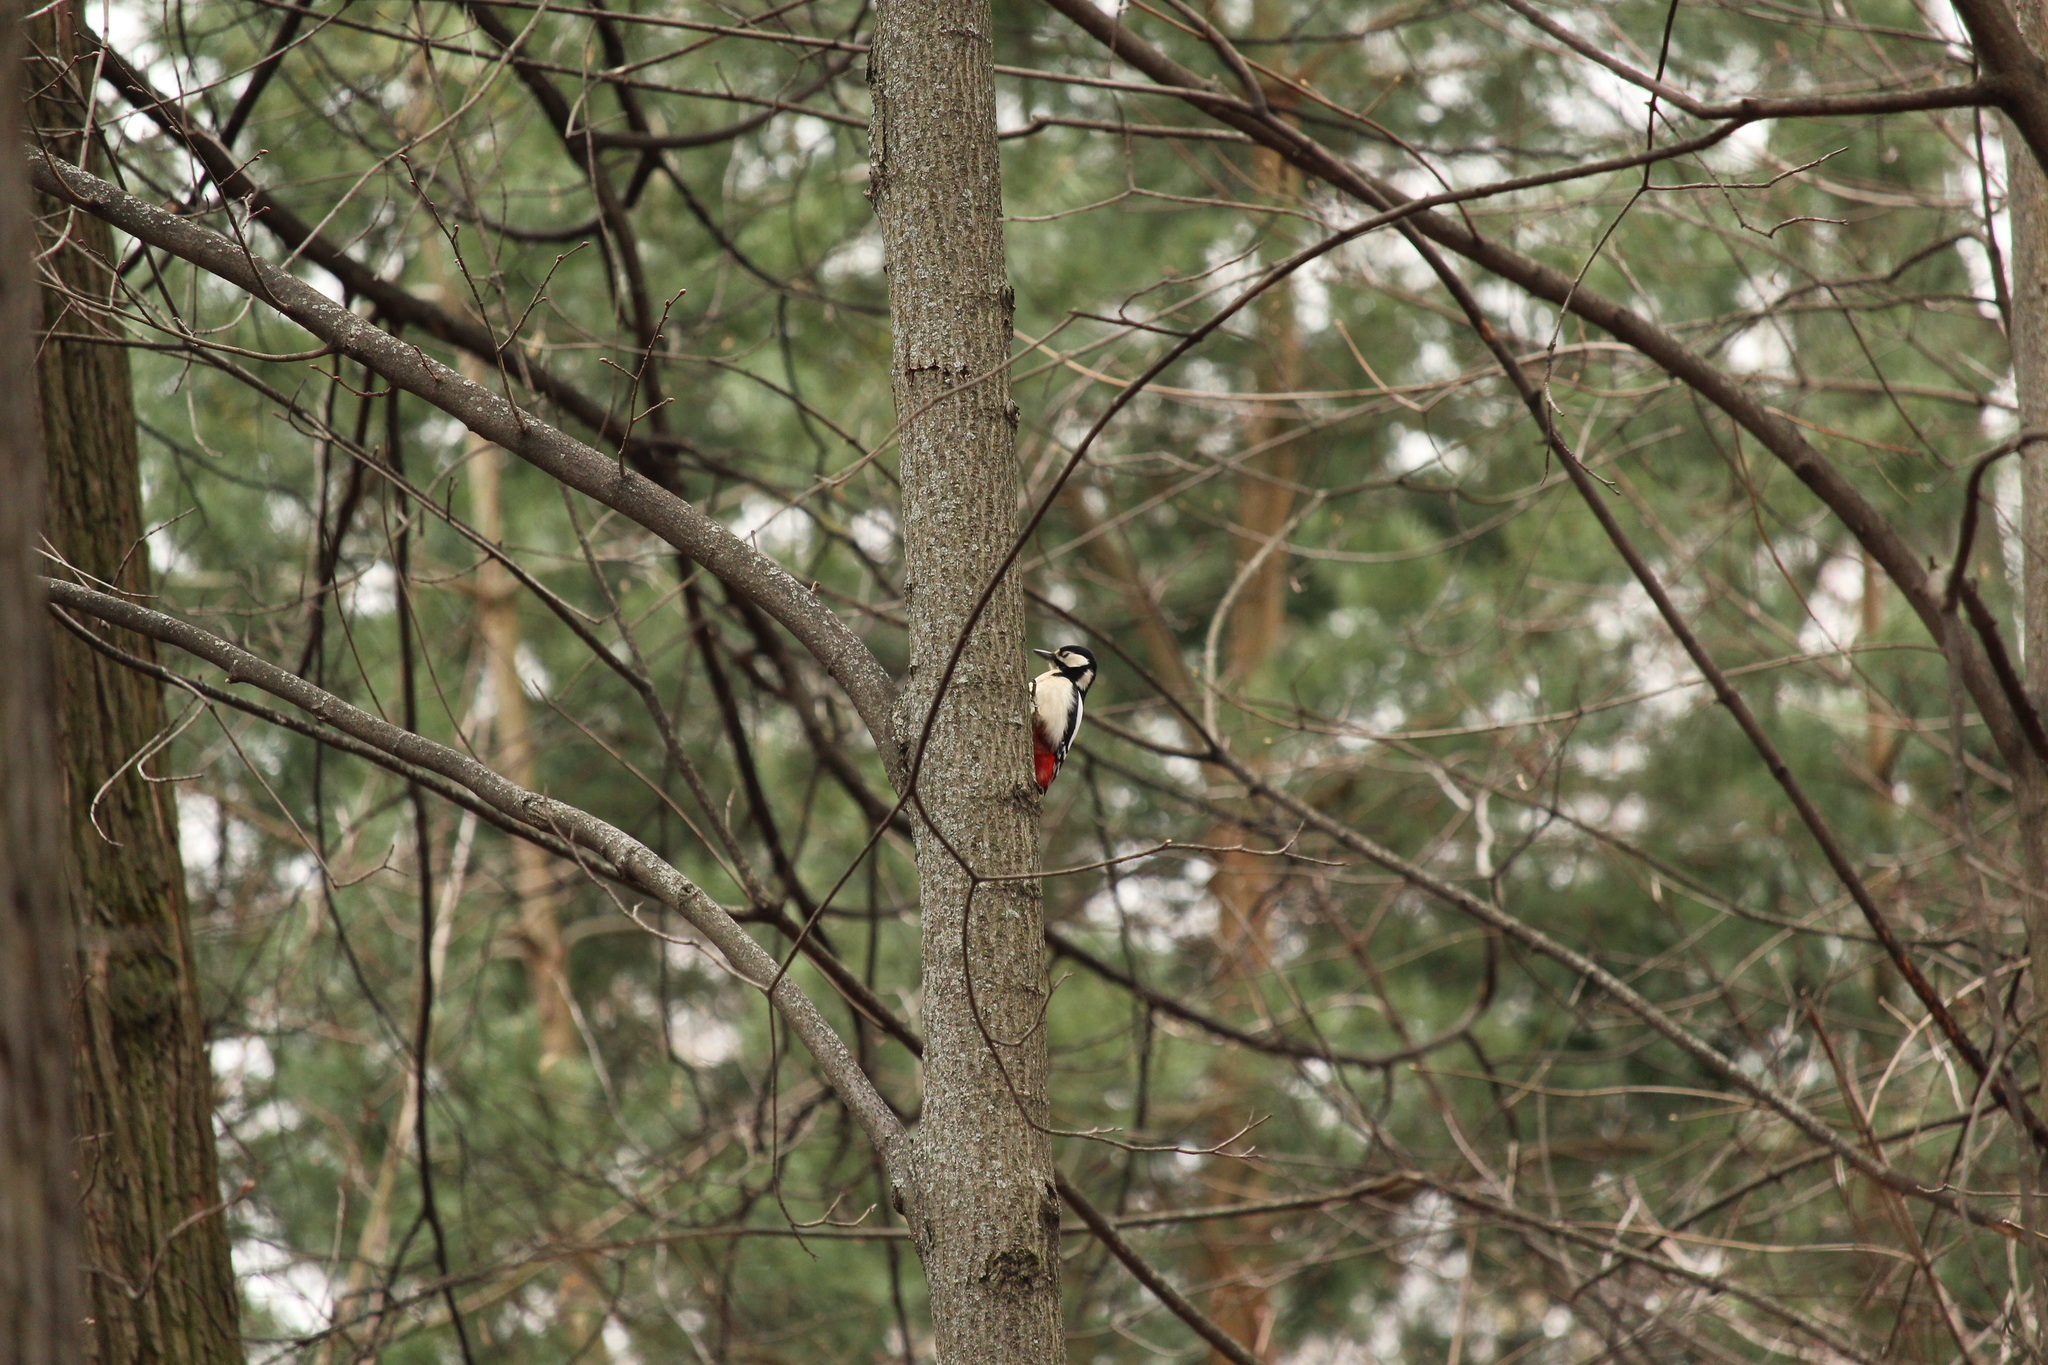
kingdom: Animalia
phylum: Chordata
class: Aves
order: Piciformes
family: Picidae
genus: Dendrocopos
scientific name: Dendrocopos major
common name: Great spotted woodpecker
